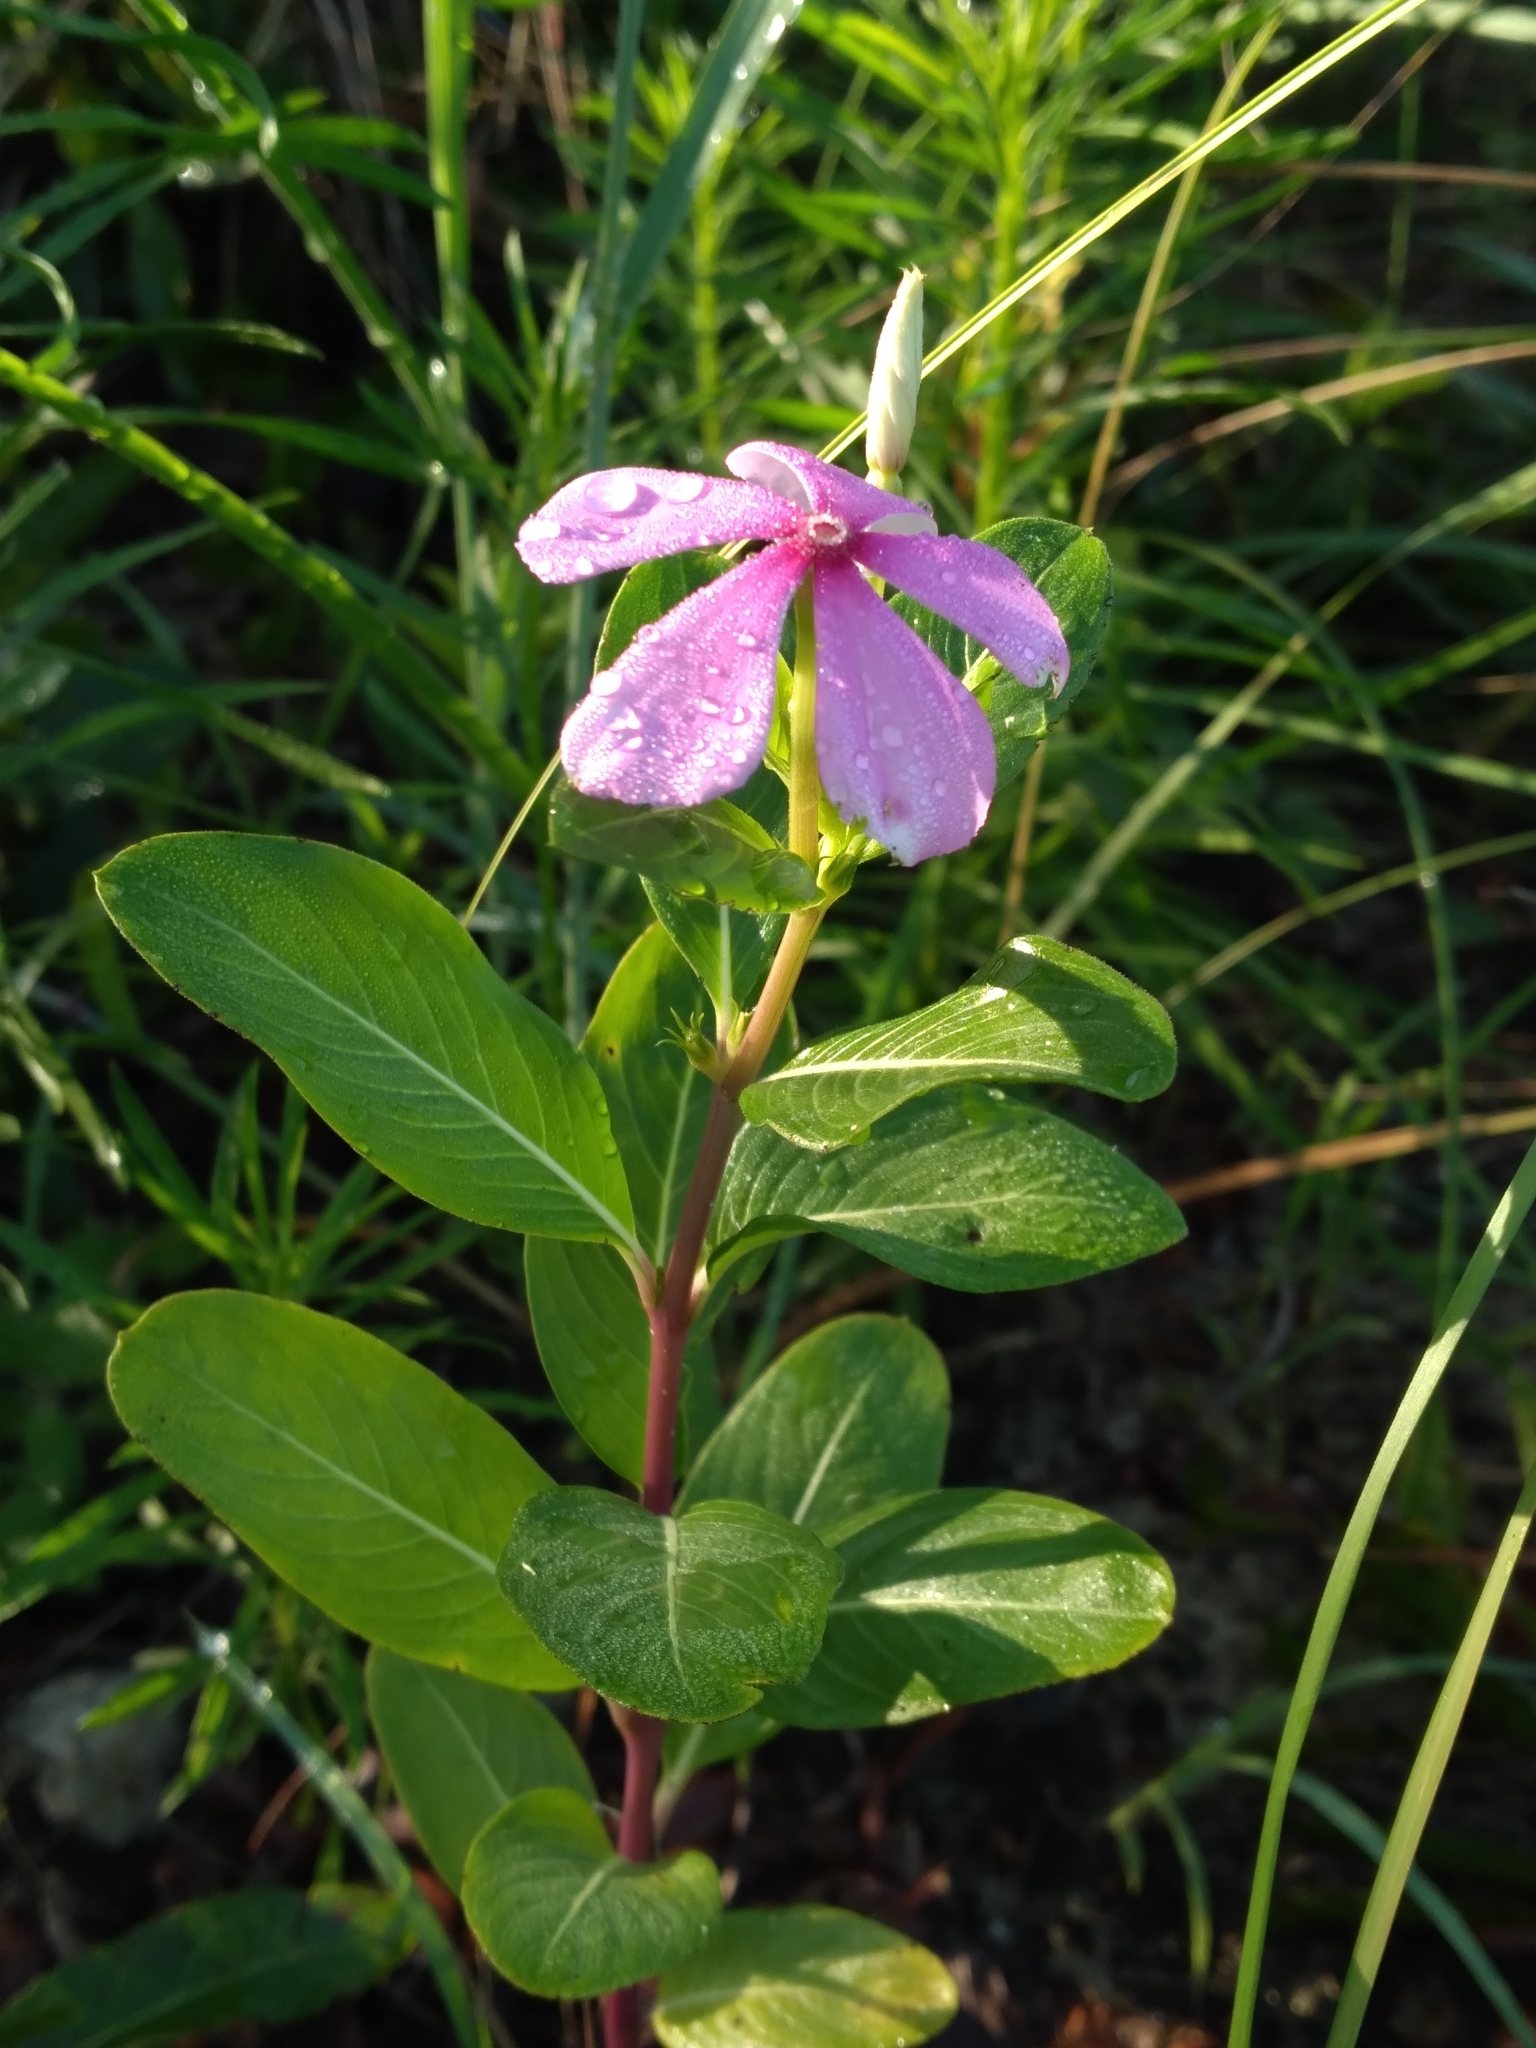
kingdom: Plantae
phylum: Tracheophyta
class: Magnoliopsida
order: Gentianales
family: Apocynaceae
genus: Catharanthus
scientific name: Catharanthus roseus
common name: Madagascar periwinkle
